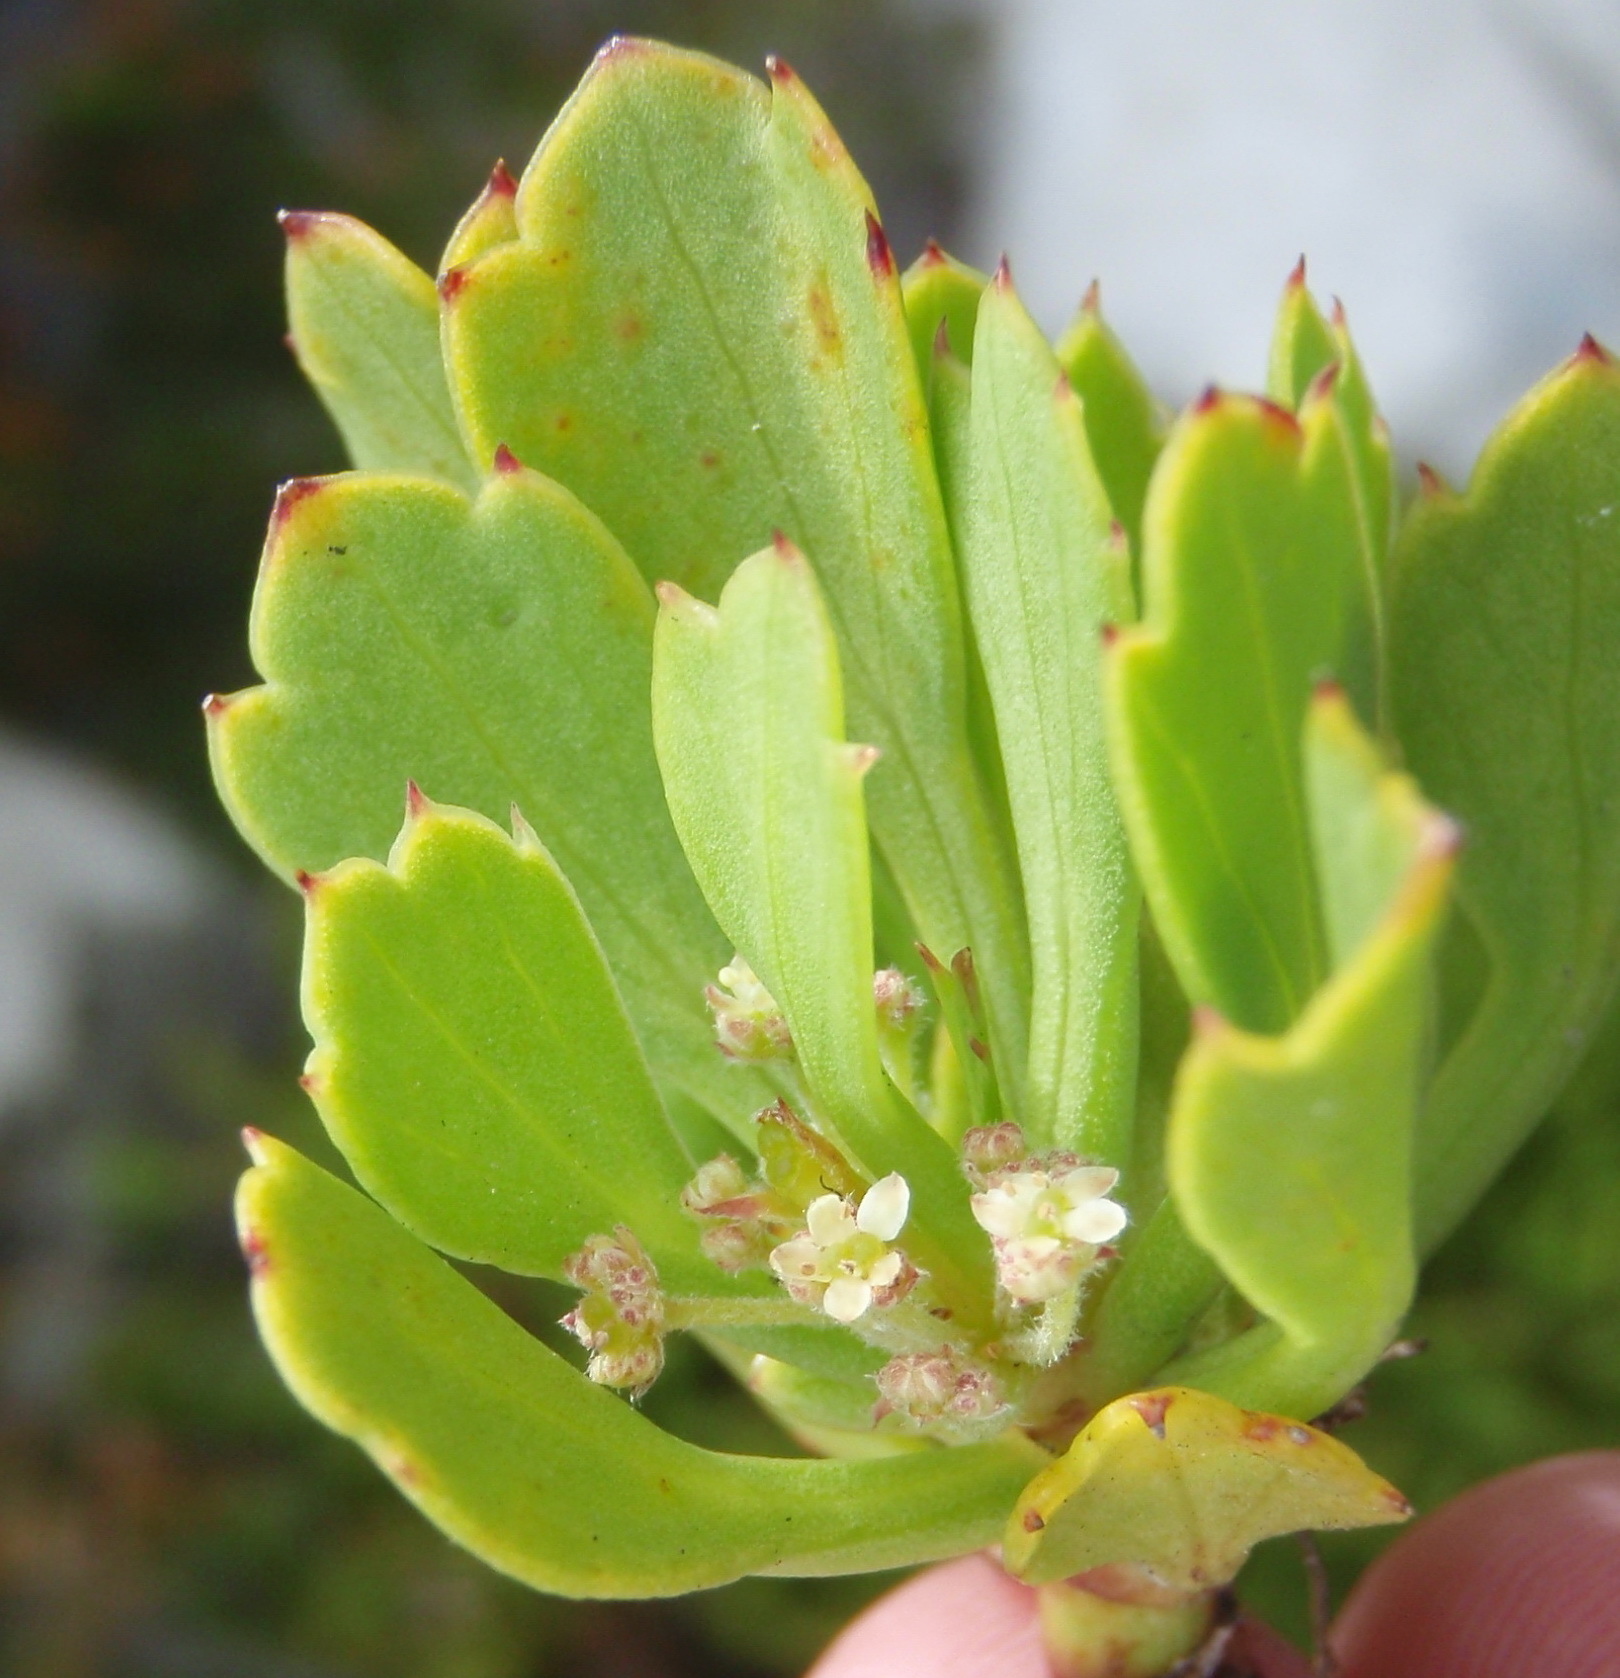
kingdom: Plantae
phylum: Tracheophyta
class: Magnoliopsida
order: Apiales
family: Apiaceae
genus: Centella
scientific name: Centella triloba
